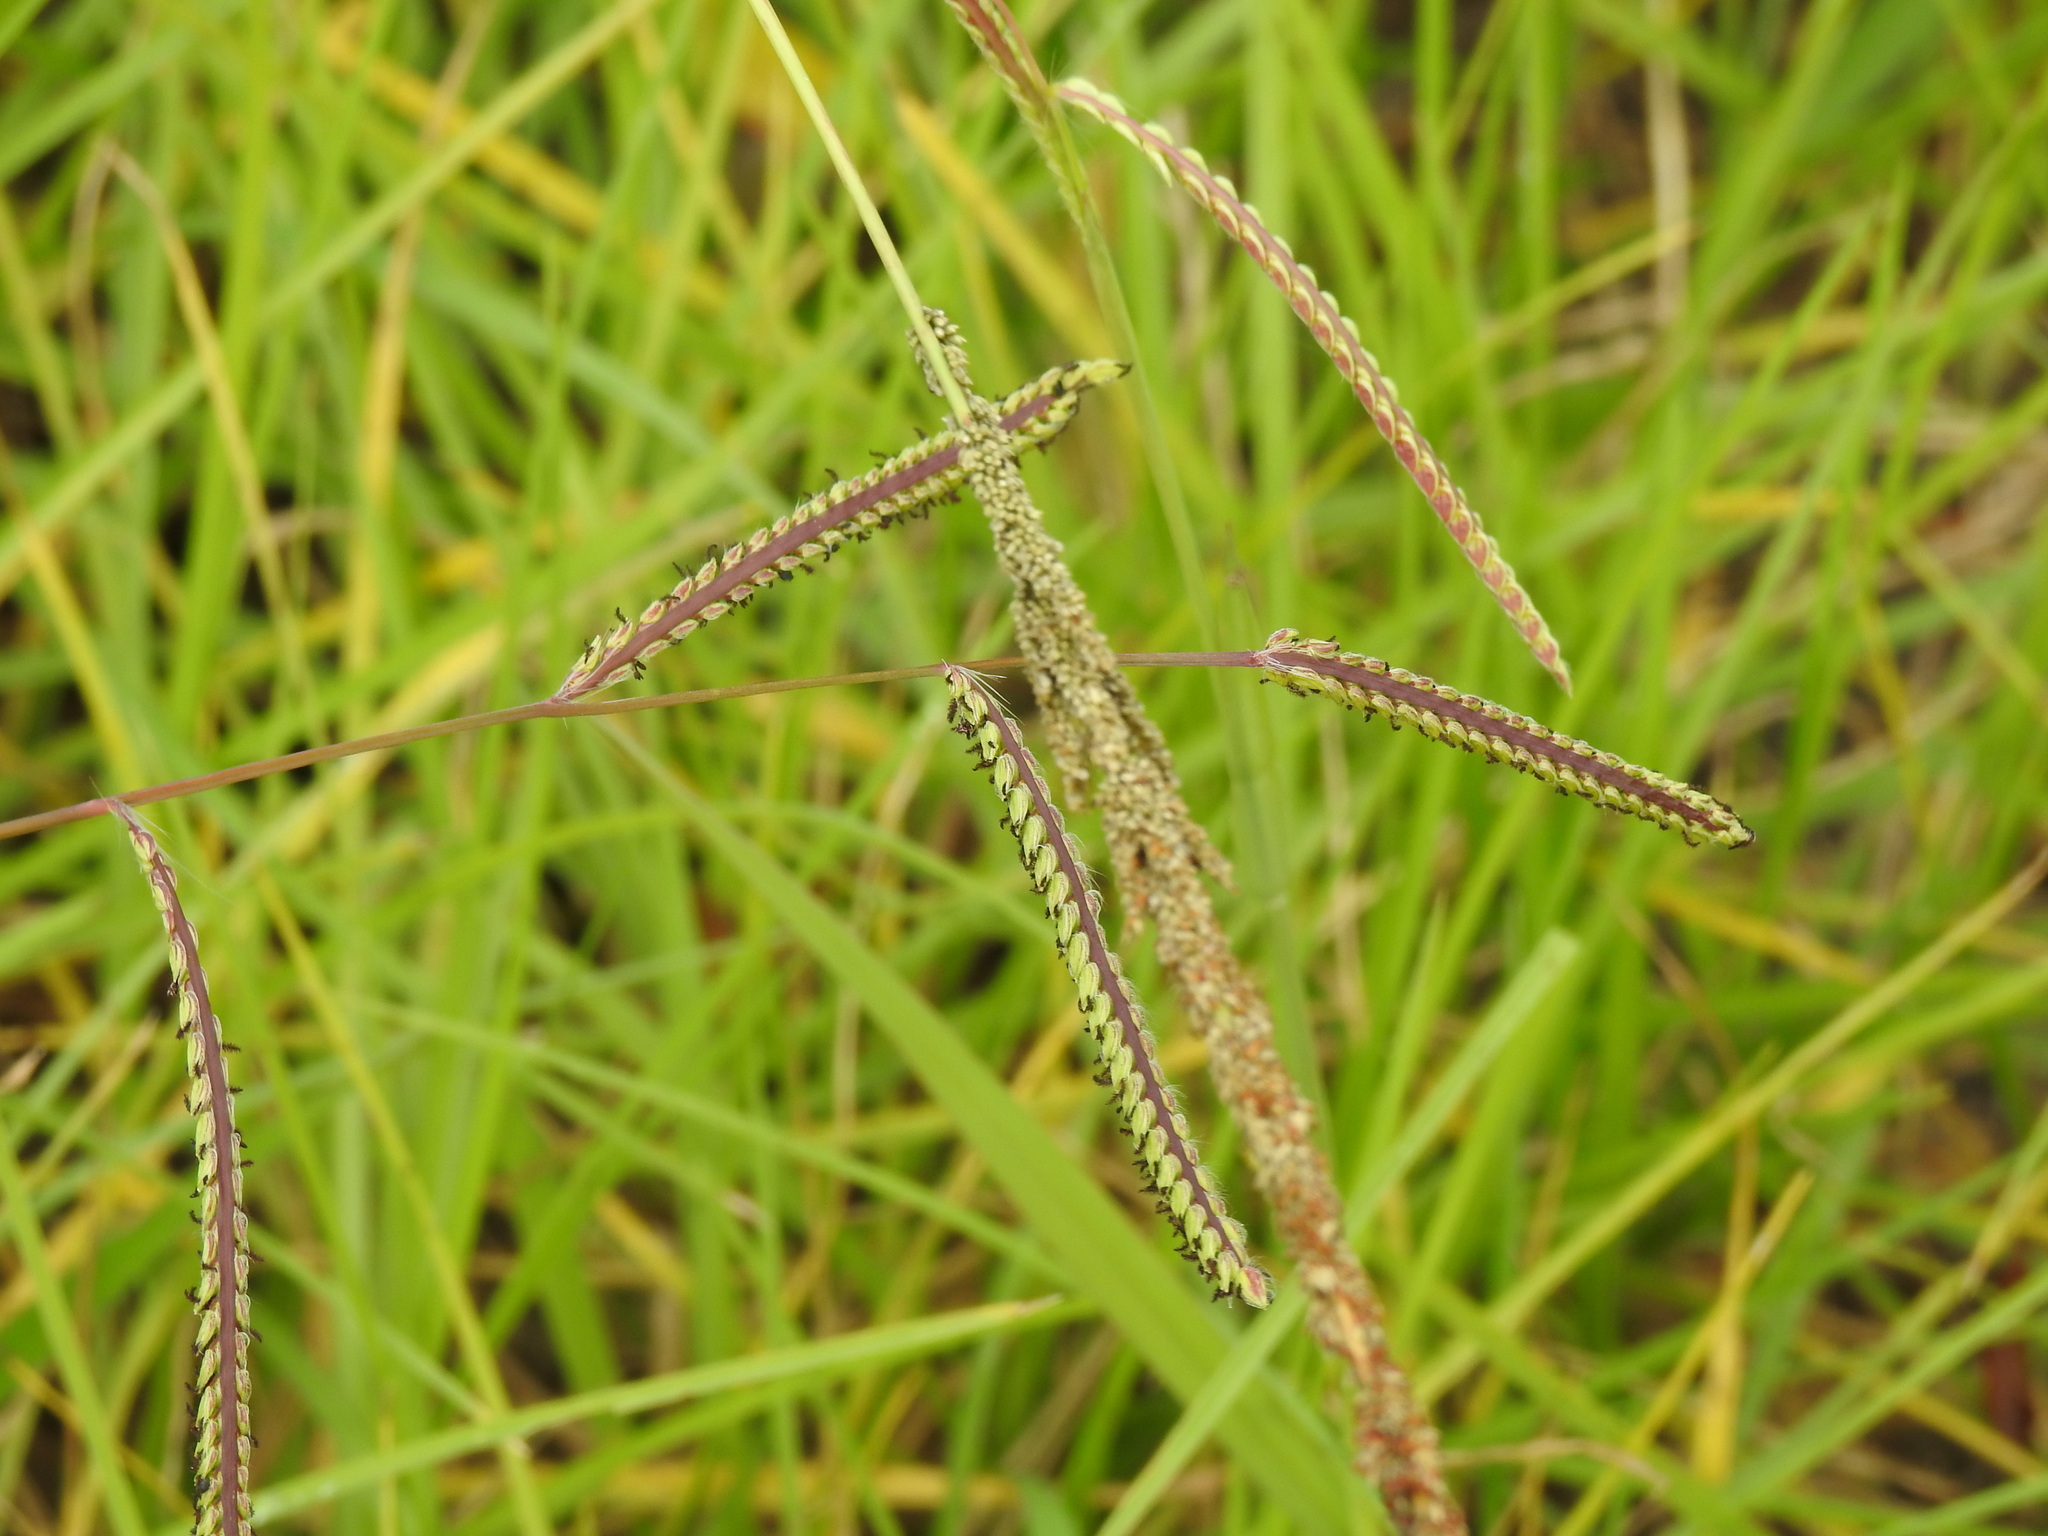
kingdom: Plantae
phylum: Tracheophyta
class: Liliopsida
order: Poales
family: Poaceae
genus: Paspalum
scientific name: Paspalum dilatatum
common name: Dallisgrass
